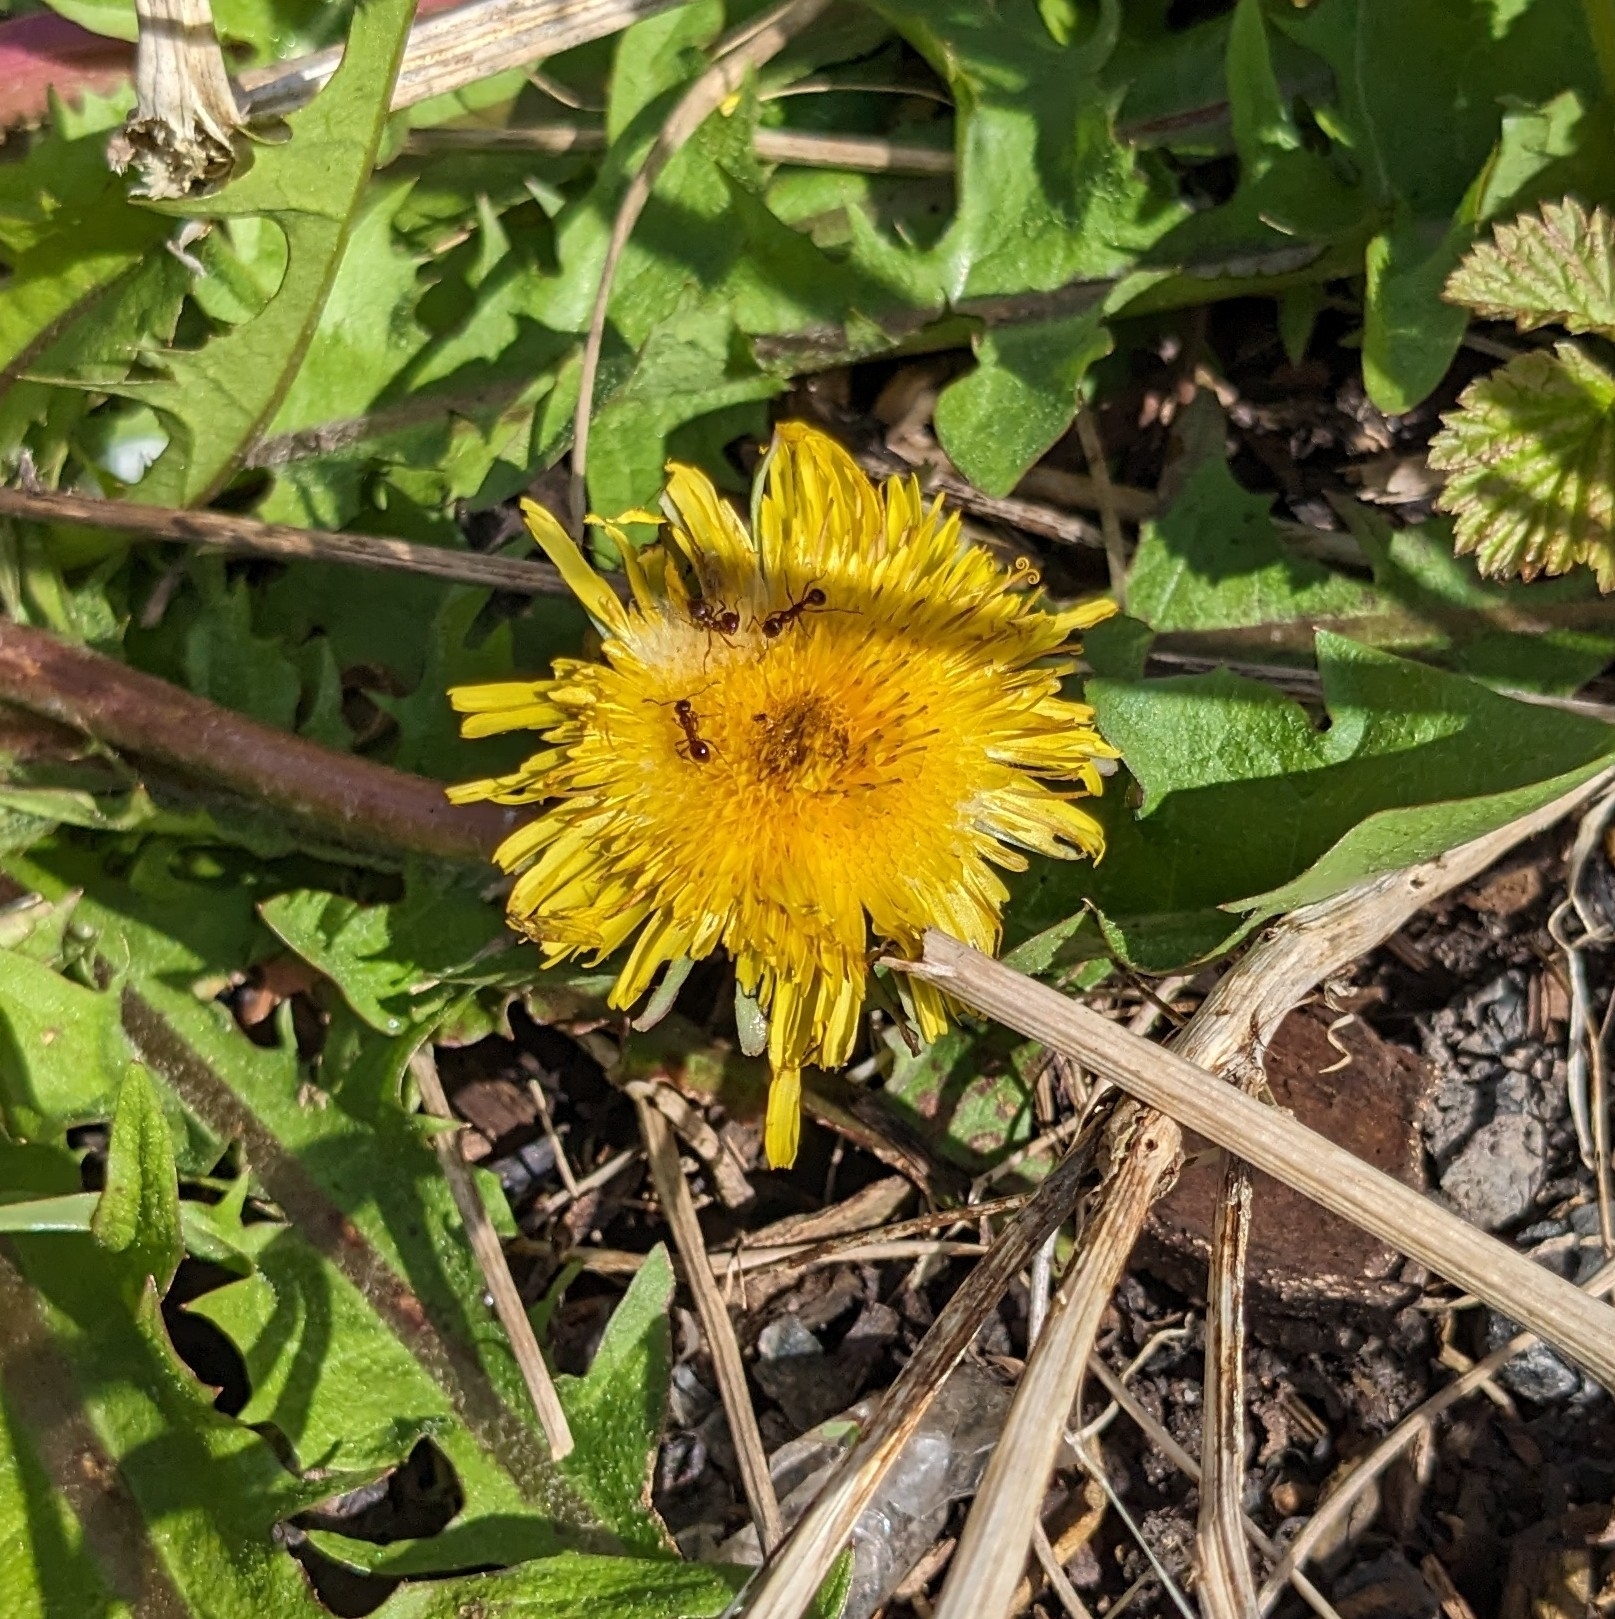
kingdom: Plantae
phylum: Tracheophyta
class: Magnoliopsida
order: Asterales
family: Asteraceae
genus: Taraxacum
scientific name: Taraxacum officinale
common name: Common dandelion
